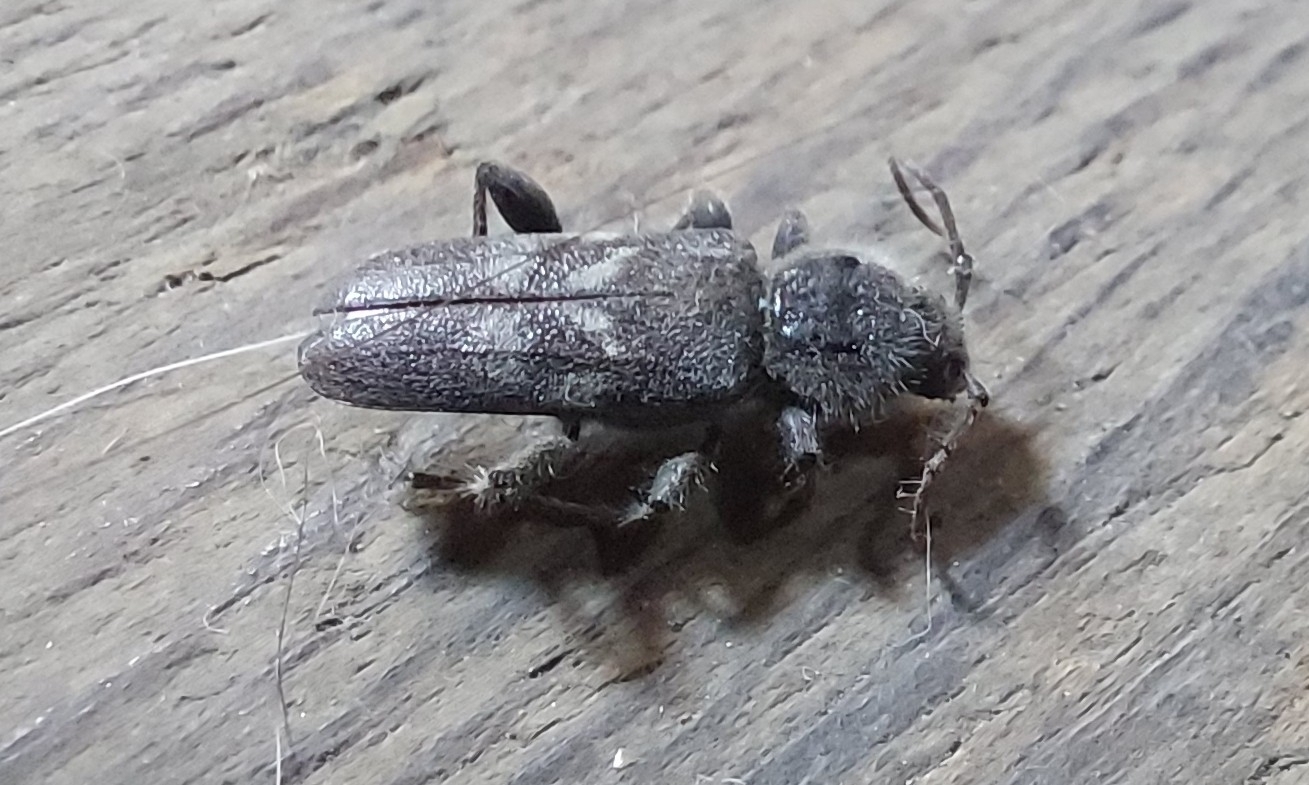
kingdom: Animalia
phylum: Arthropoda
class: Insecta
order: Coleoptera
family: Cerambycidae
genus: Hylotrupes
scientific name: Hylotrupes bajulus
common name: Old house borer
